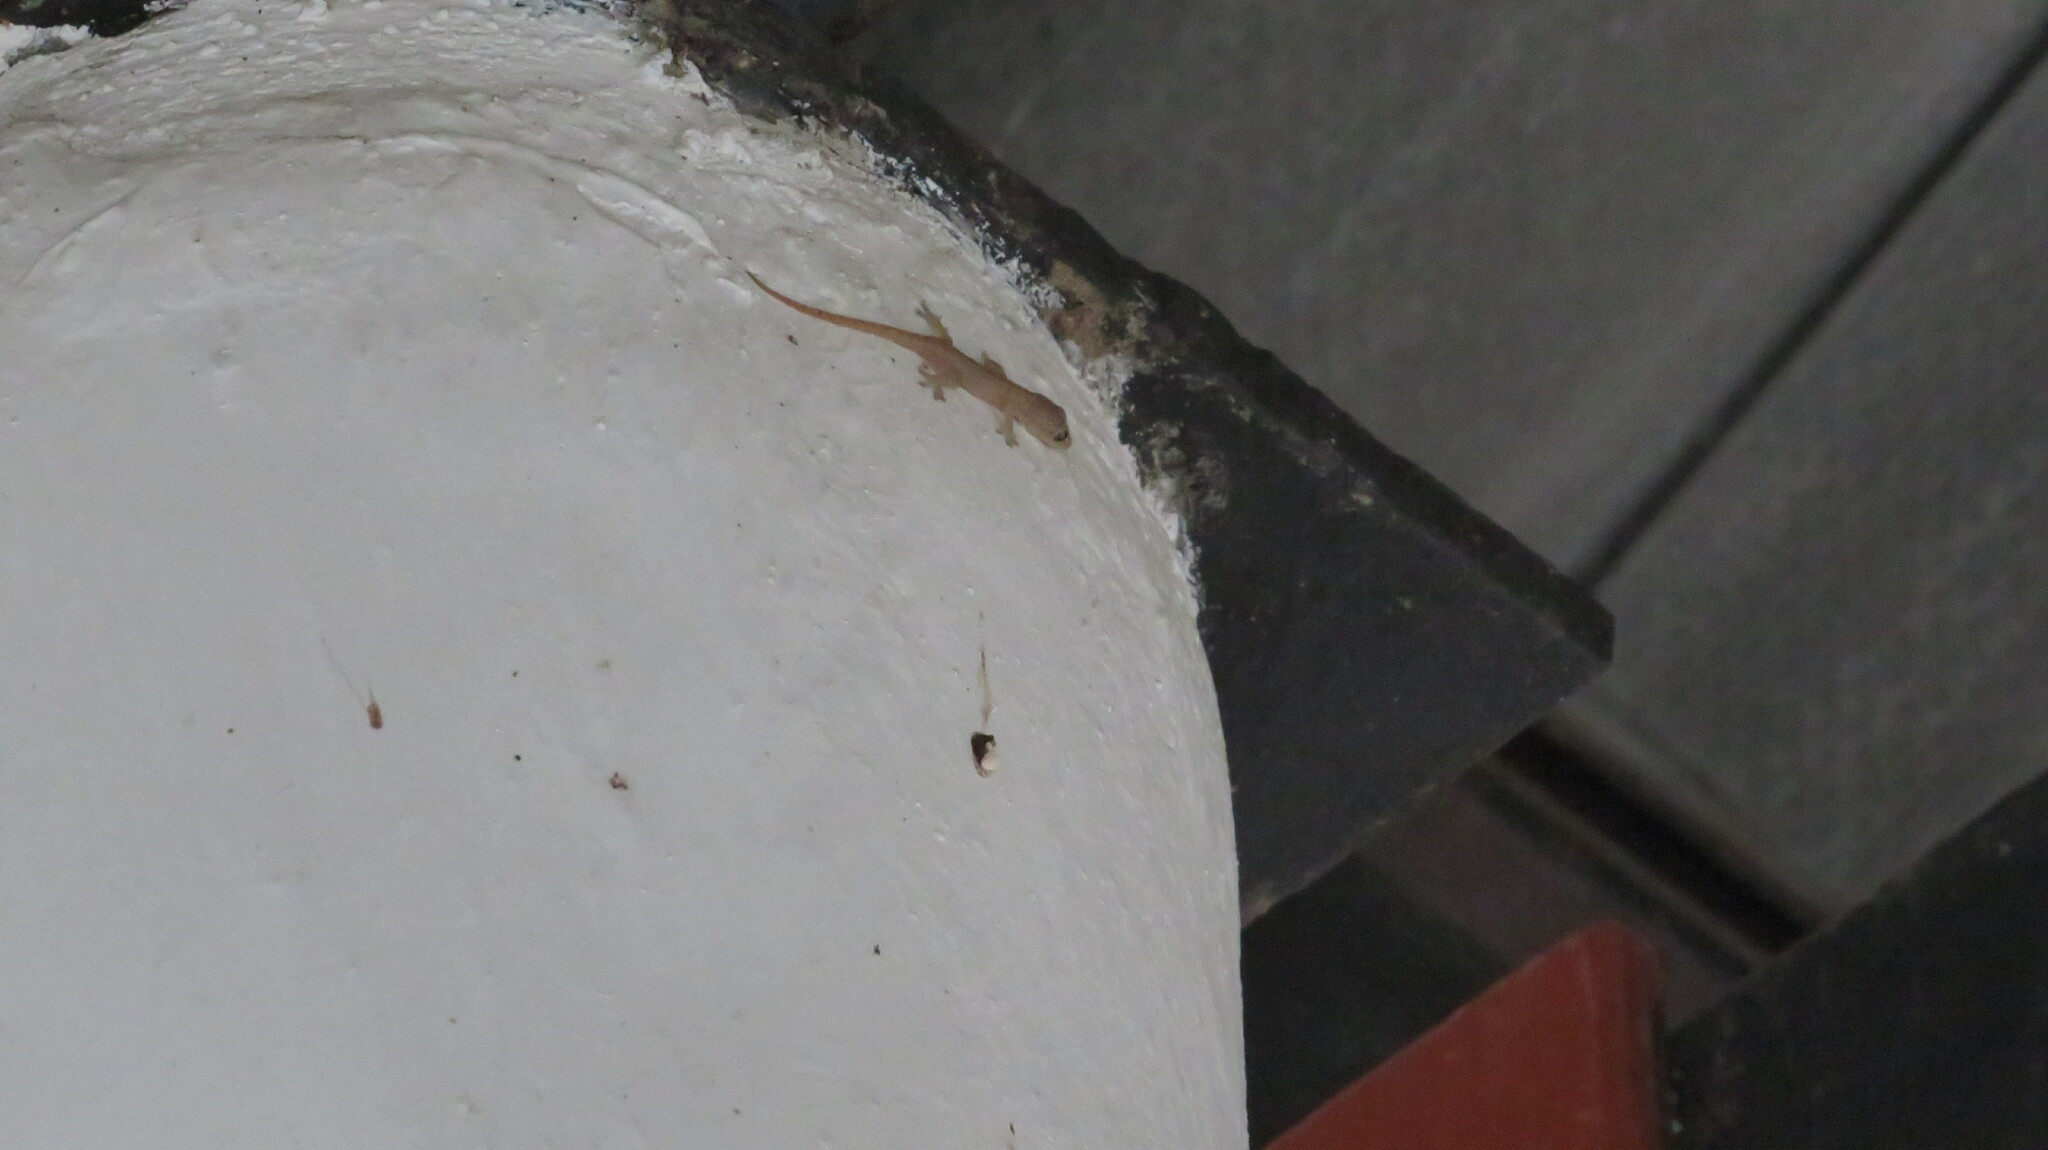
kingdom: Animalia
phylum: Chordata
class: Squamata
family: Gekkonidae
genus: Hemidactylus
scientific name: Hemidactylus frenatus
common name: Common house gecko
